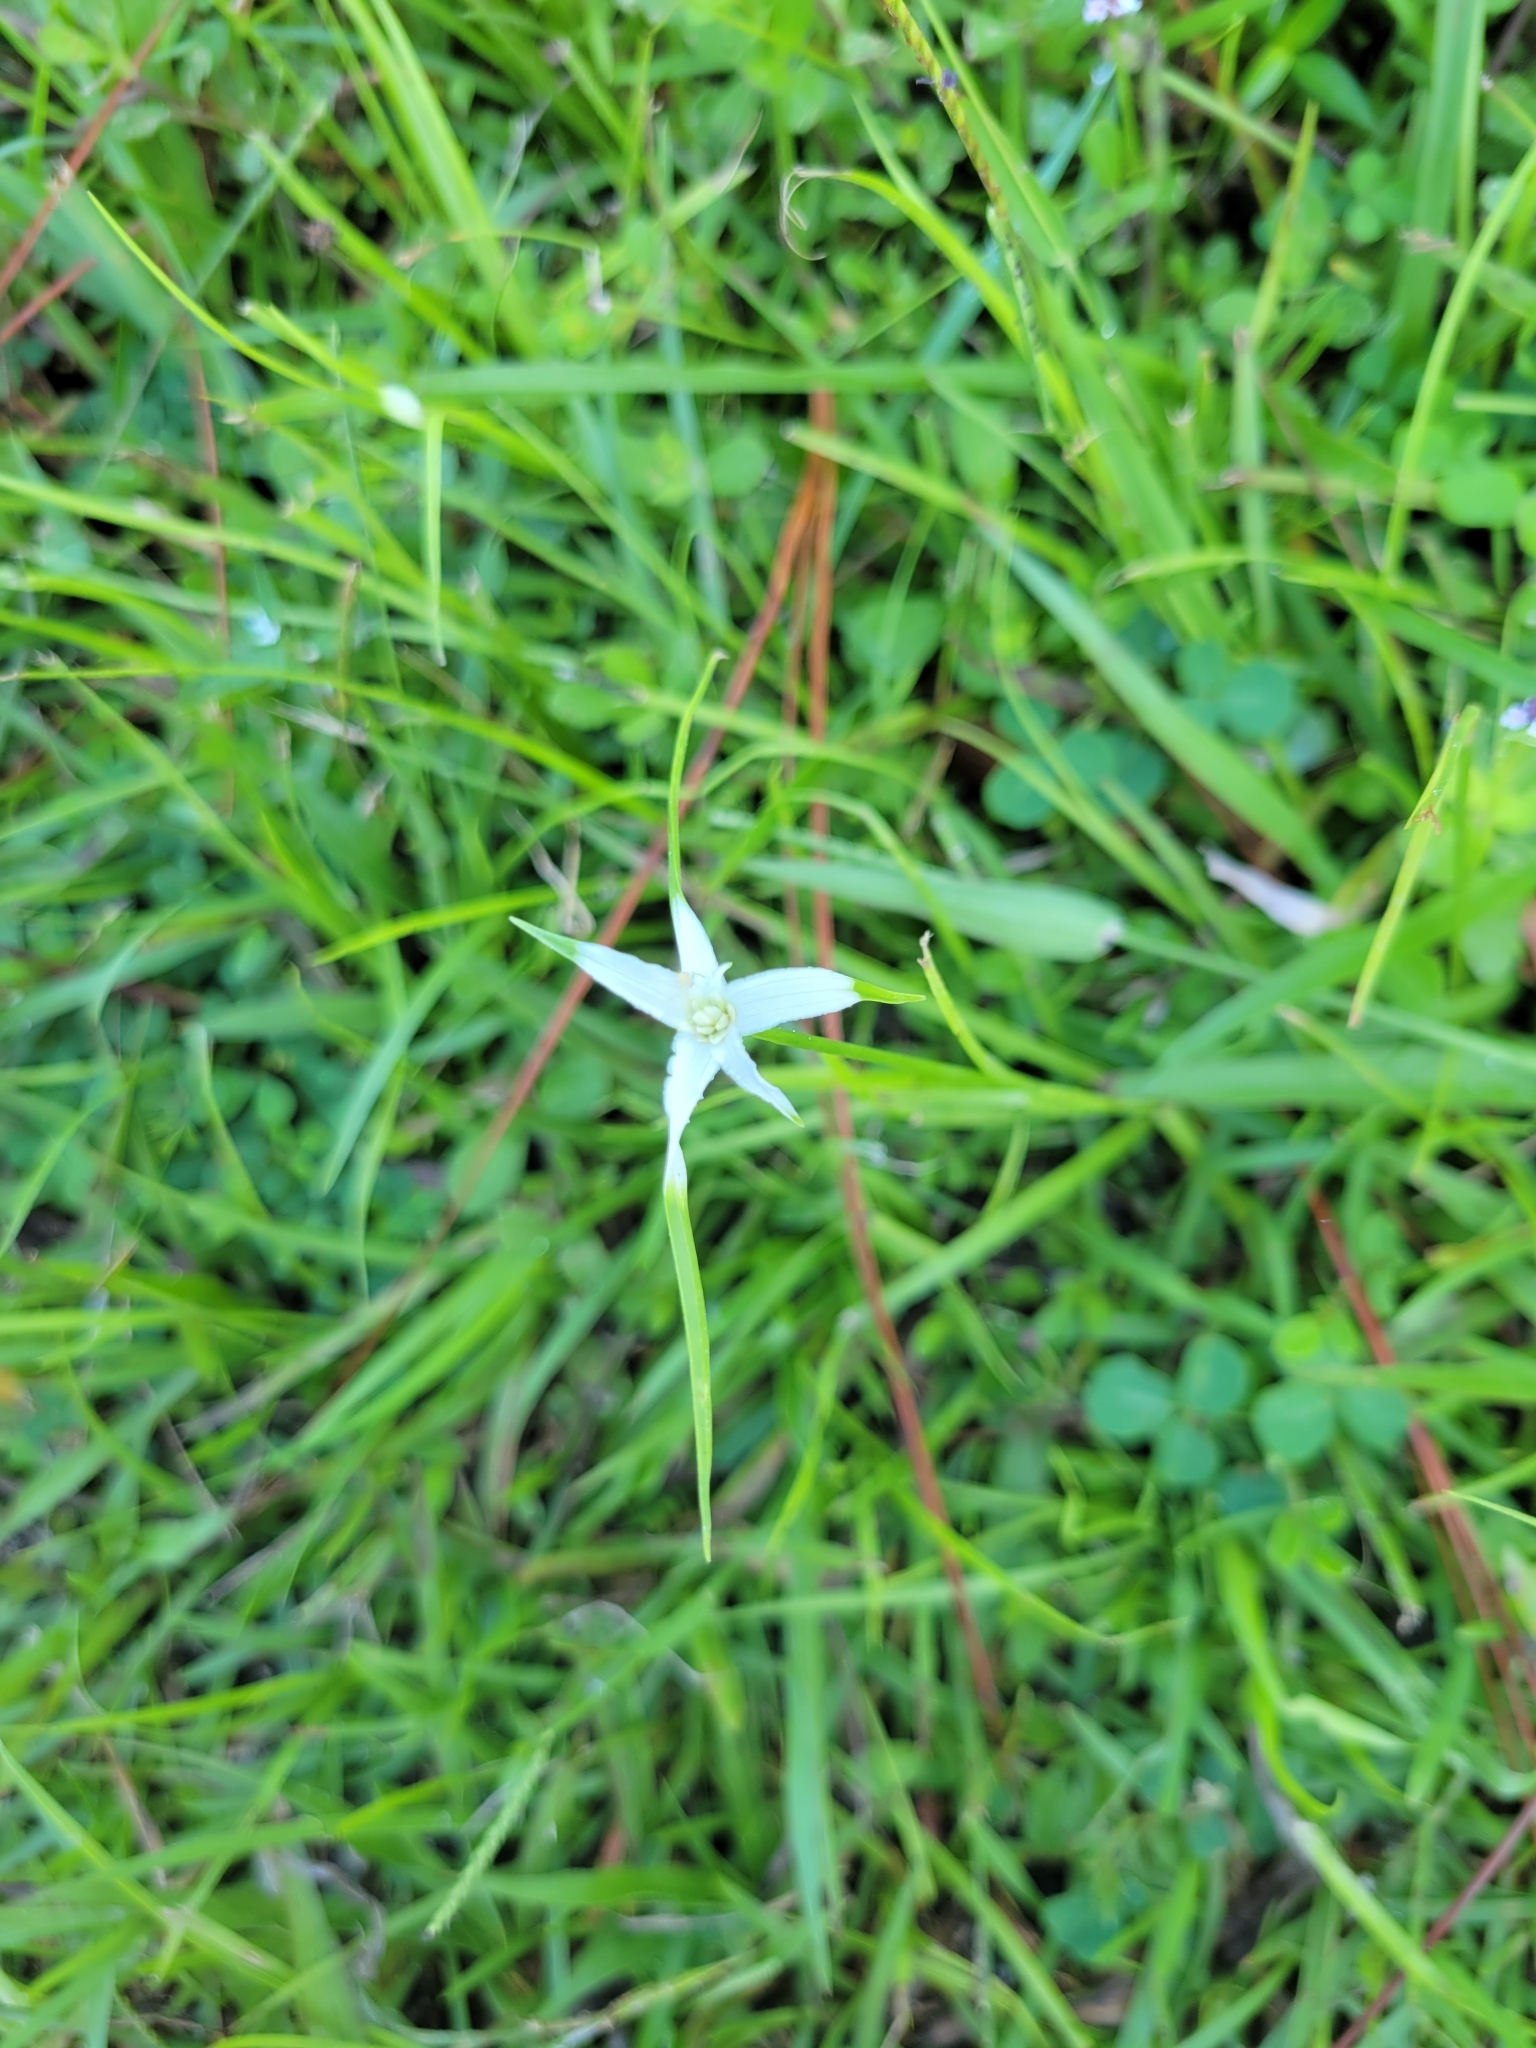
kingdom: Plantae
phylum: Tracheophyta
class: Liliopsida
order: Poales
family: Cyperaceae
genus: Rhynchospora
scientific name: Rhynchospora colorata
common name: Star sedge
